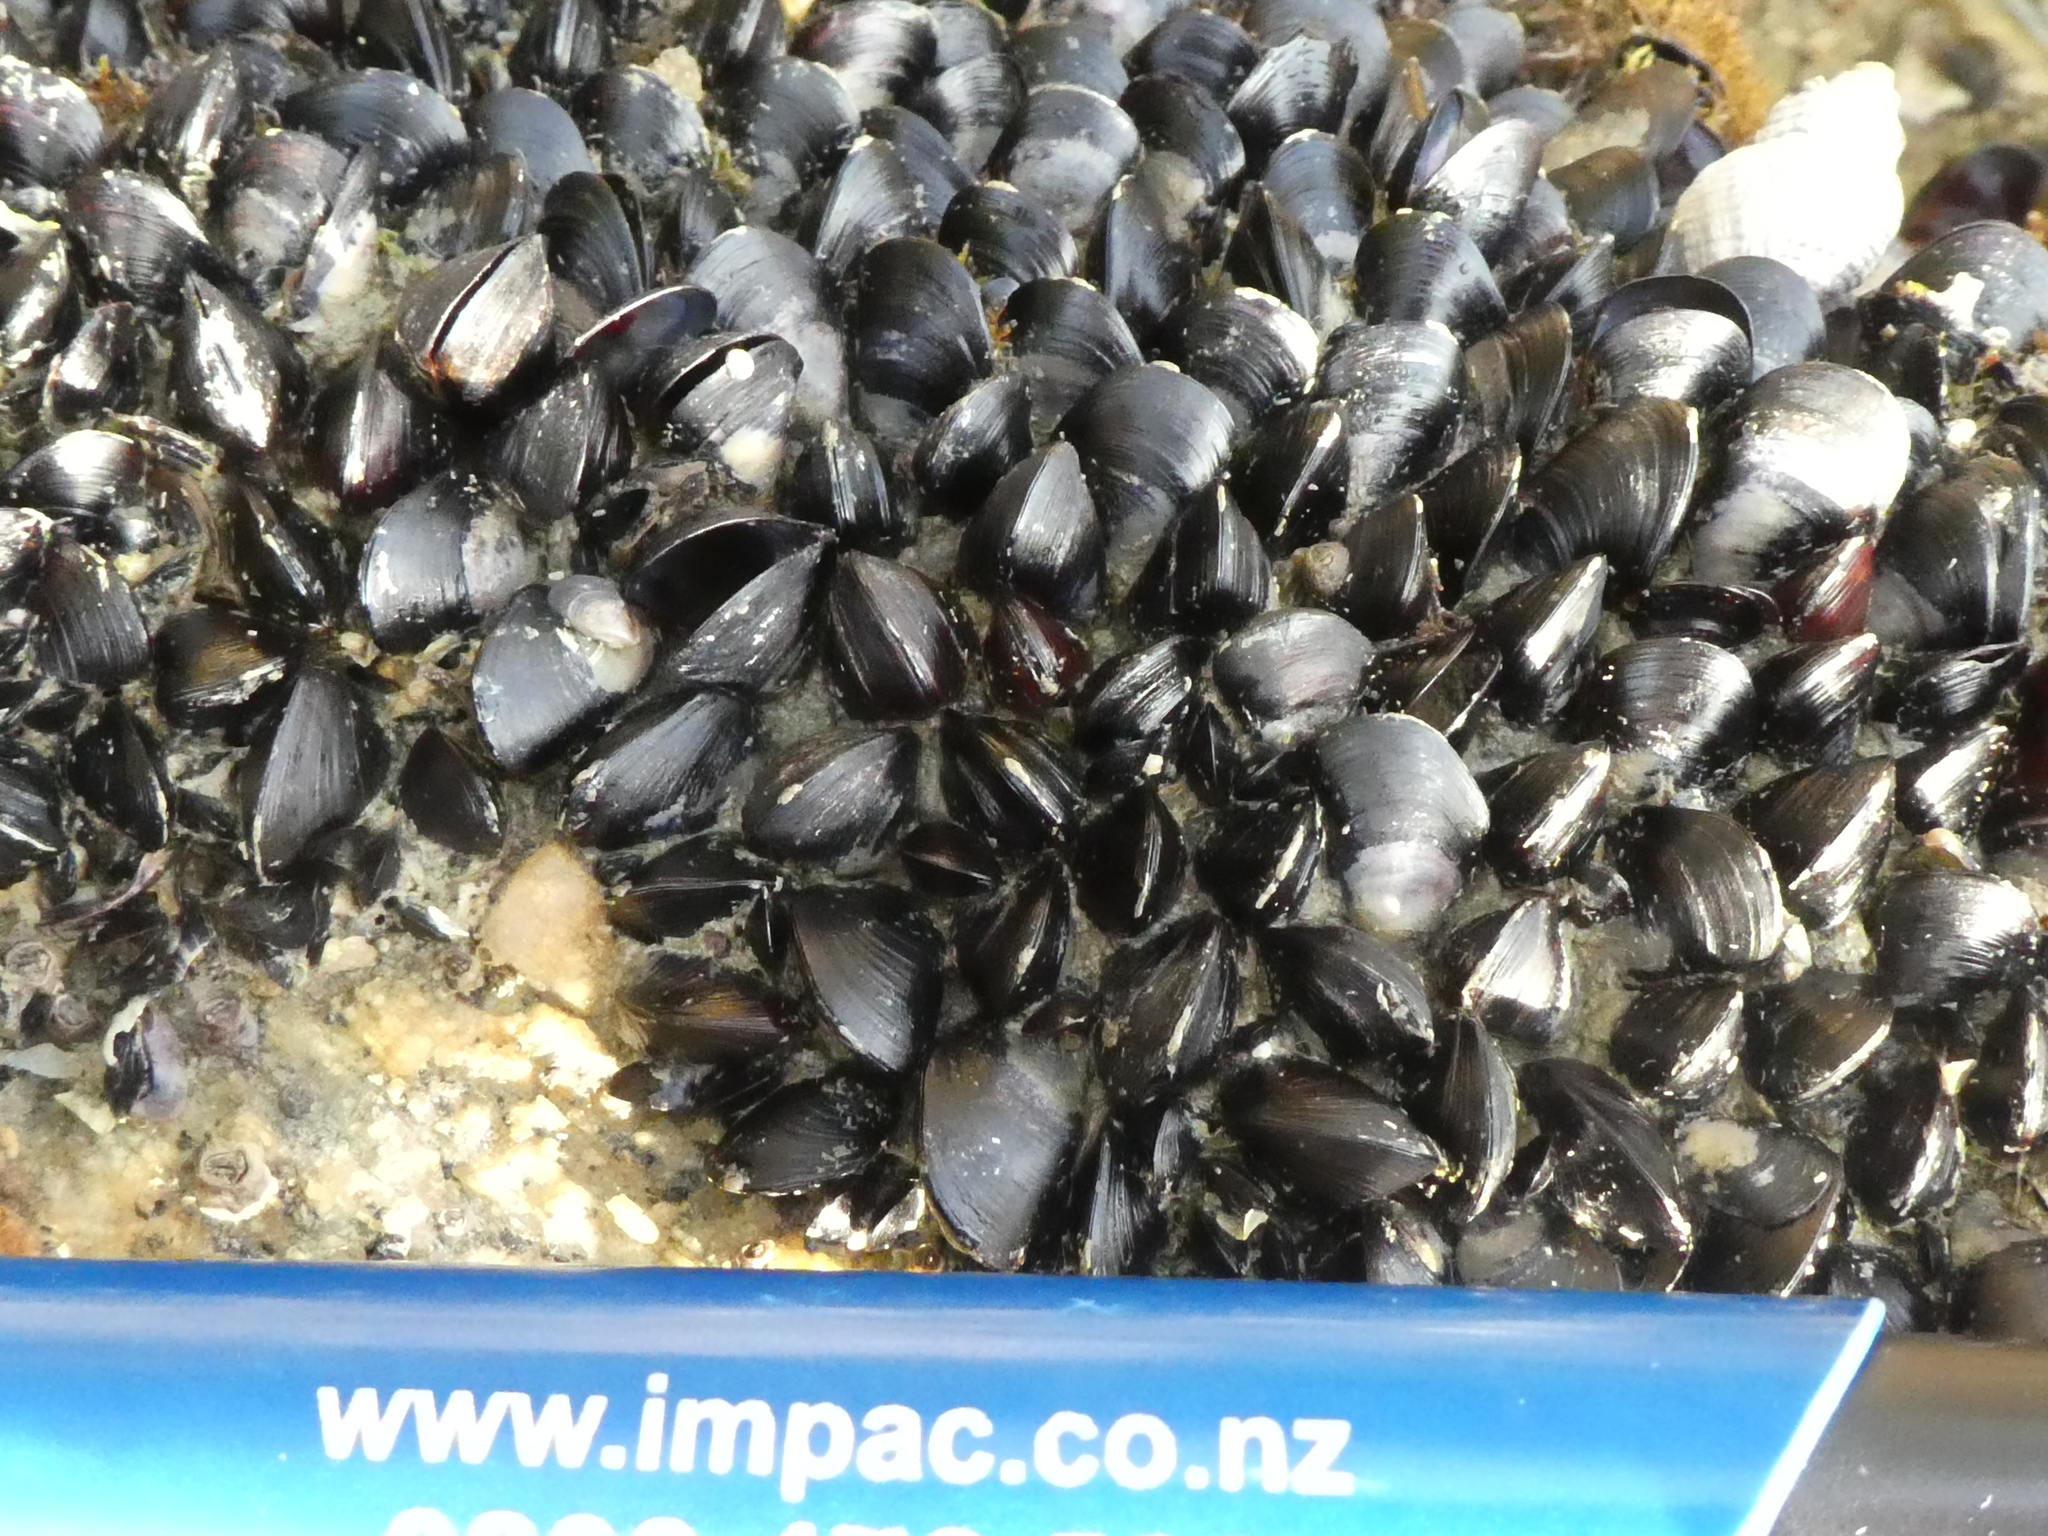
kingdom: Animalia
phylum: Mollusca
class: Bivalvia
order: Mytilida
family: Mytilidae
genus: Xenostrobus
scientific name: Xenostrobus neozelanicus
